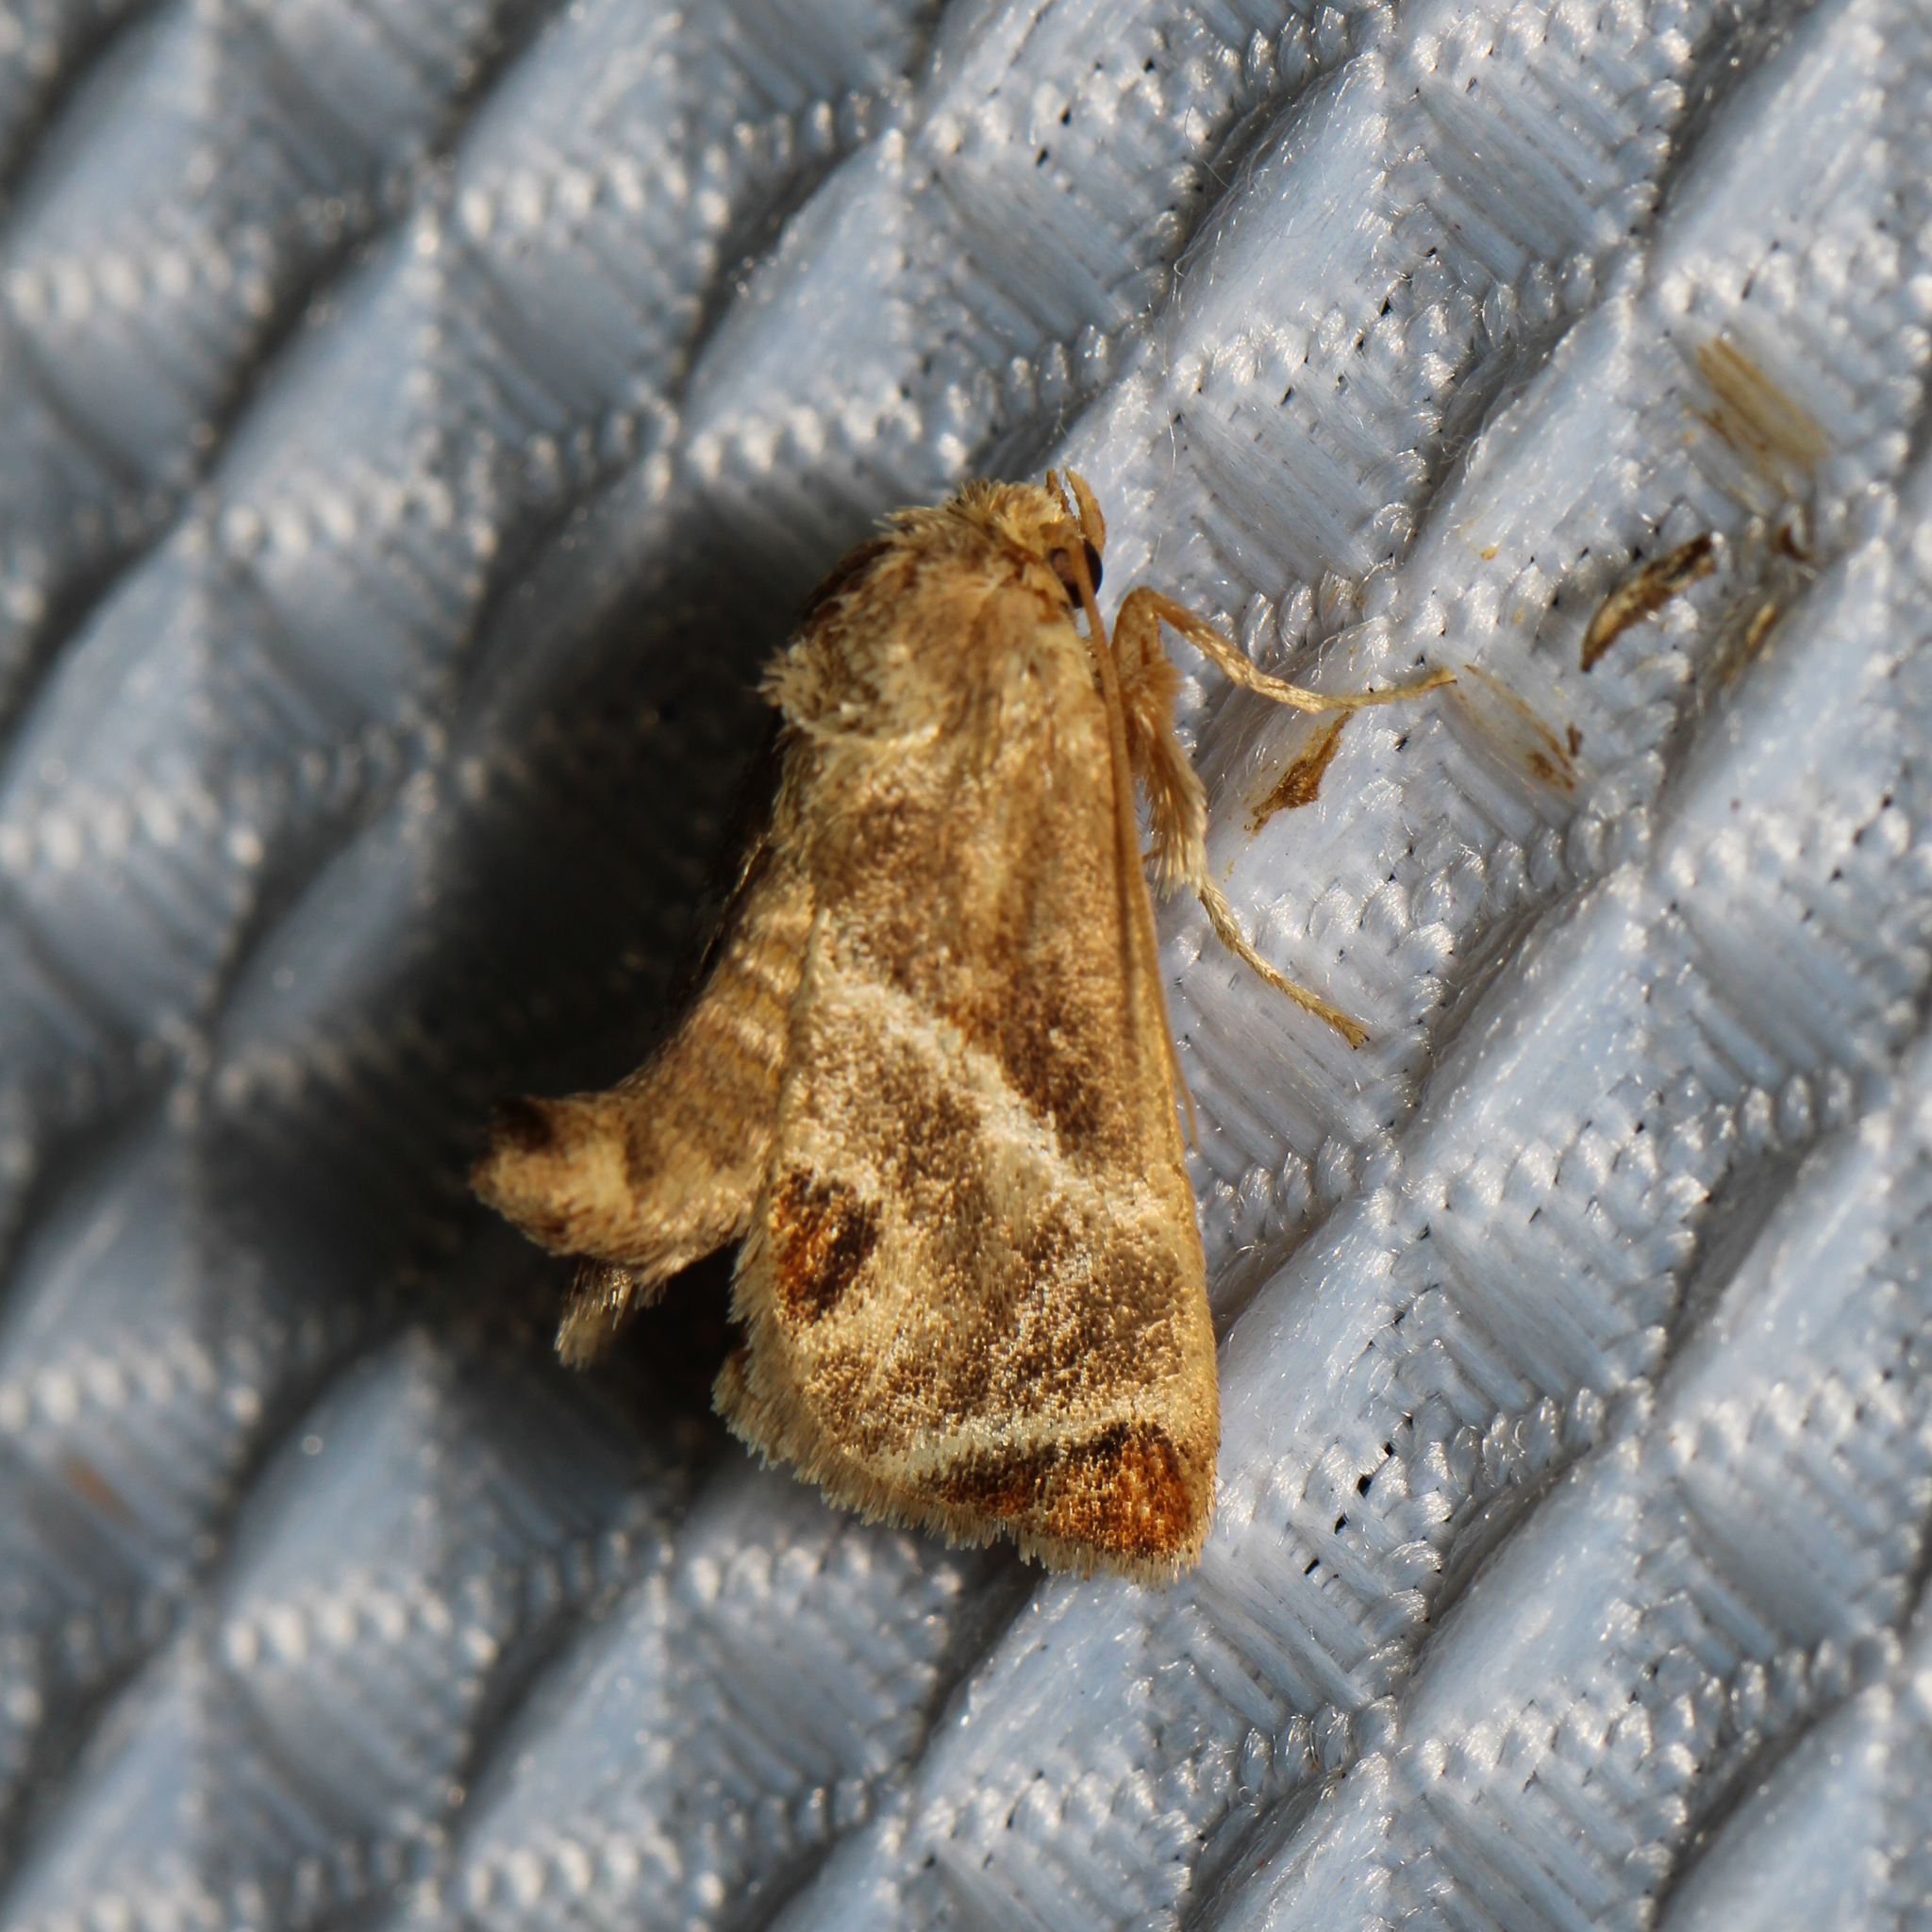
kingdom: Animalia
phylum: Arthropoda
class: Insecta
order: Lepidoptera
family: Limacodidae
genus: Apoda
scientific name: Apoda biguttata
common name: Shagreened slug moth
